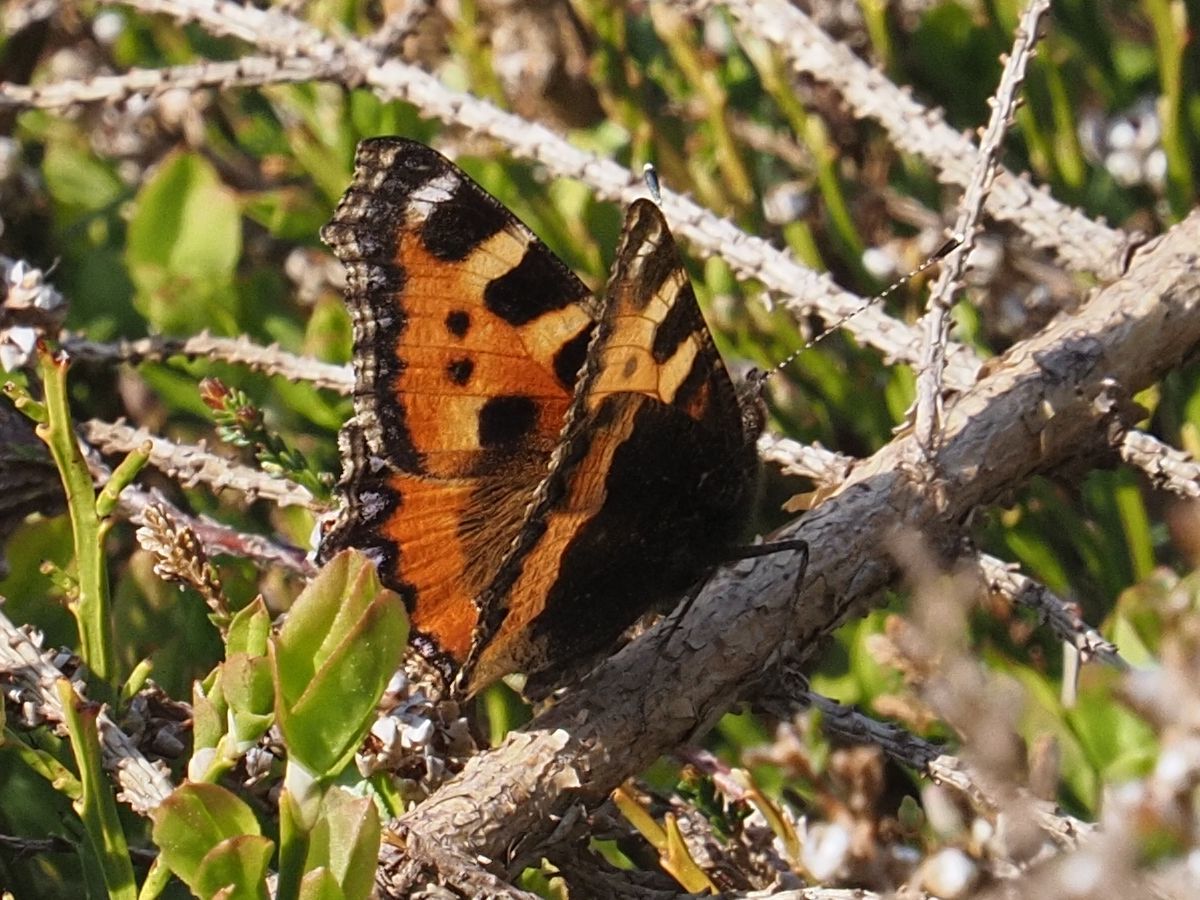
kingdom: Animalia
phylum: Arthropoda
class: Insecta
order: Lepidoptera
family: Nymphalidae
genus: Aglais
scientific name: Aglais urticae
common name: Small tortoiseshell
